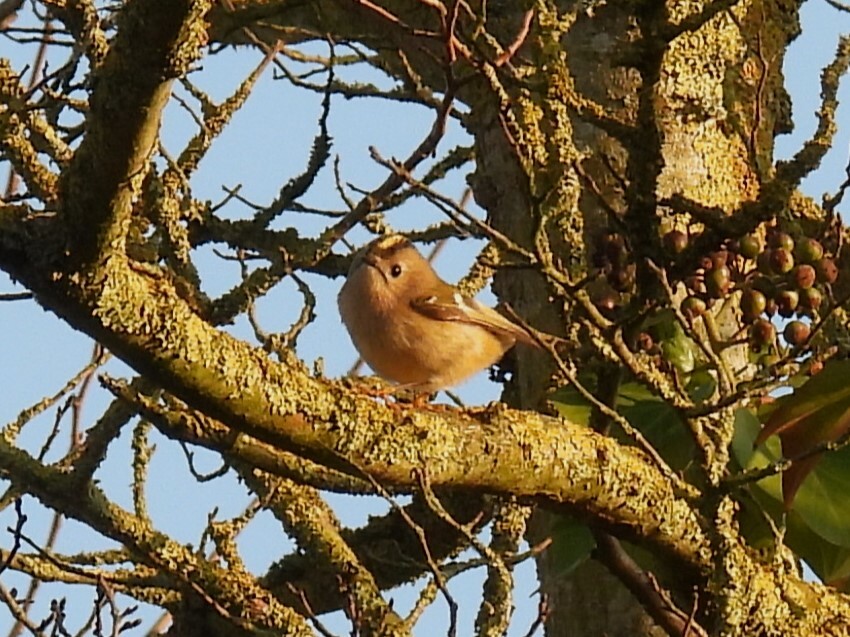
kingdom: Animalia
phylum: Chordata
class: Aves
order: Passeriformes
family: Regulidae
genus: Regulus
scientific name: Regulus regulus
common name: Goldcrest
